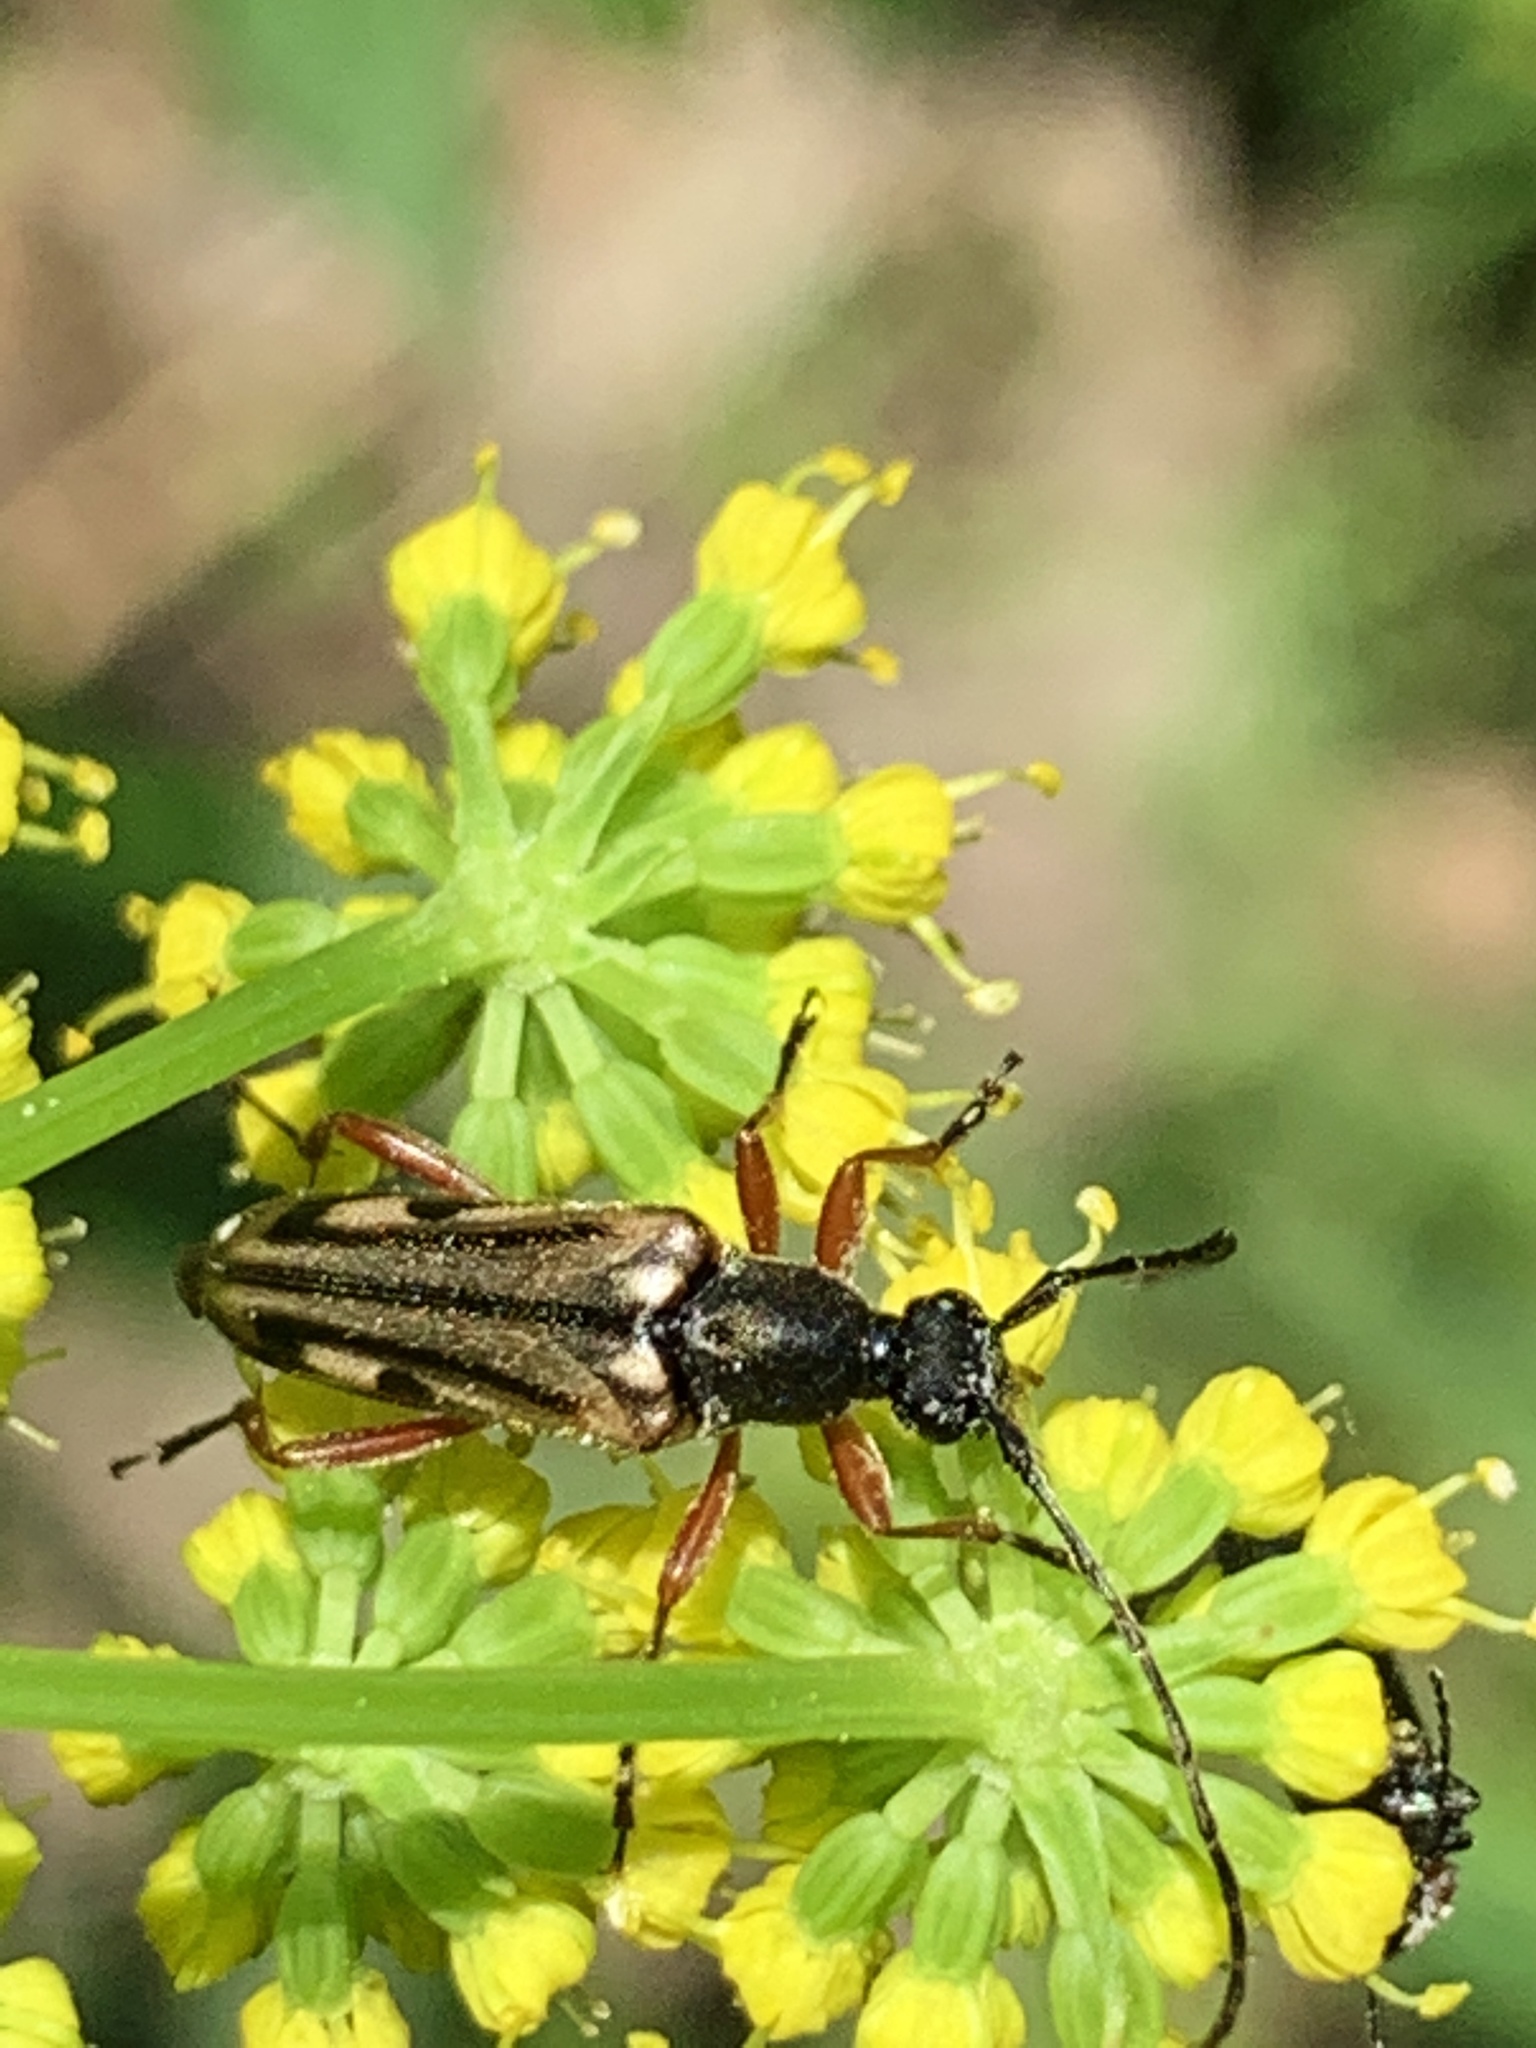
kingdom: Animalia
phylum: Arthropoda
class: Insecta
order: Coleoptera
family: Cerambycidae
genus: Analeptura
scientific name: Analeptura lineola
